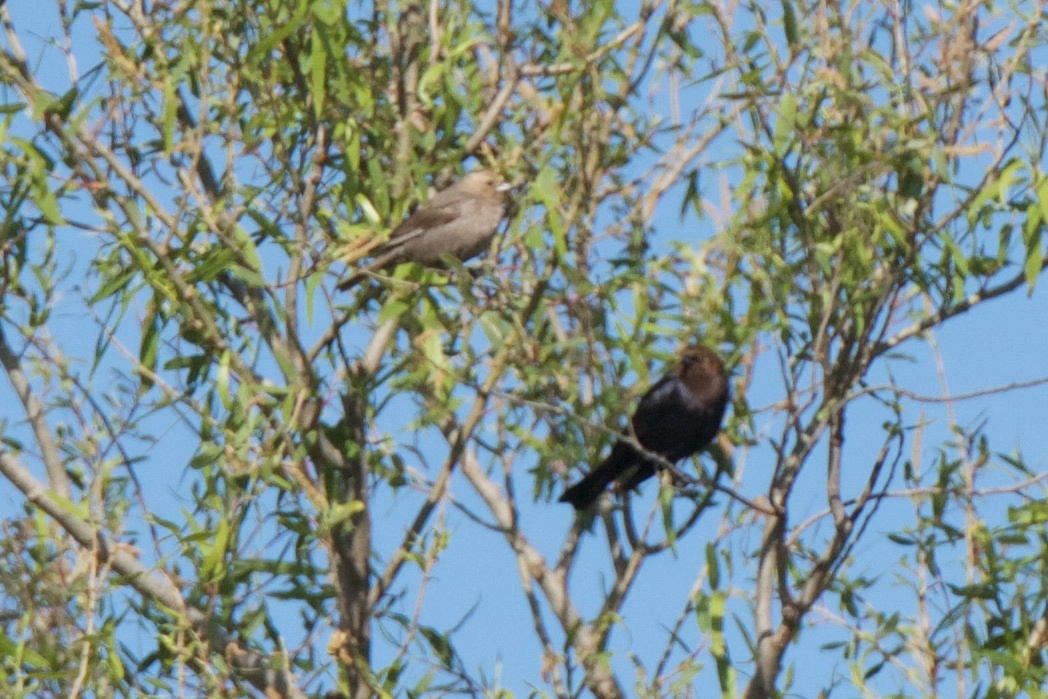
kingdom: Animalia
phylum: Chordata
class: Aves
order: Passeriformes
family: Icteridae
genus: Molothrus
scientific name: Molothrus ater
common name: Brown-headed cowbird
